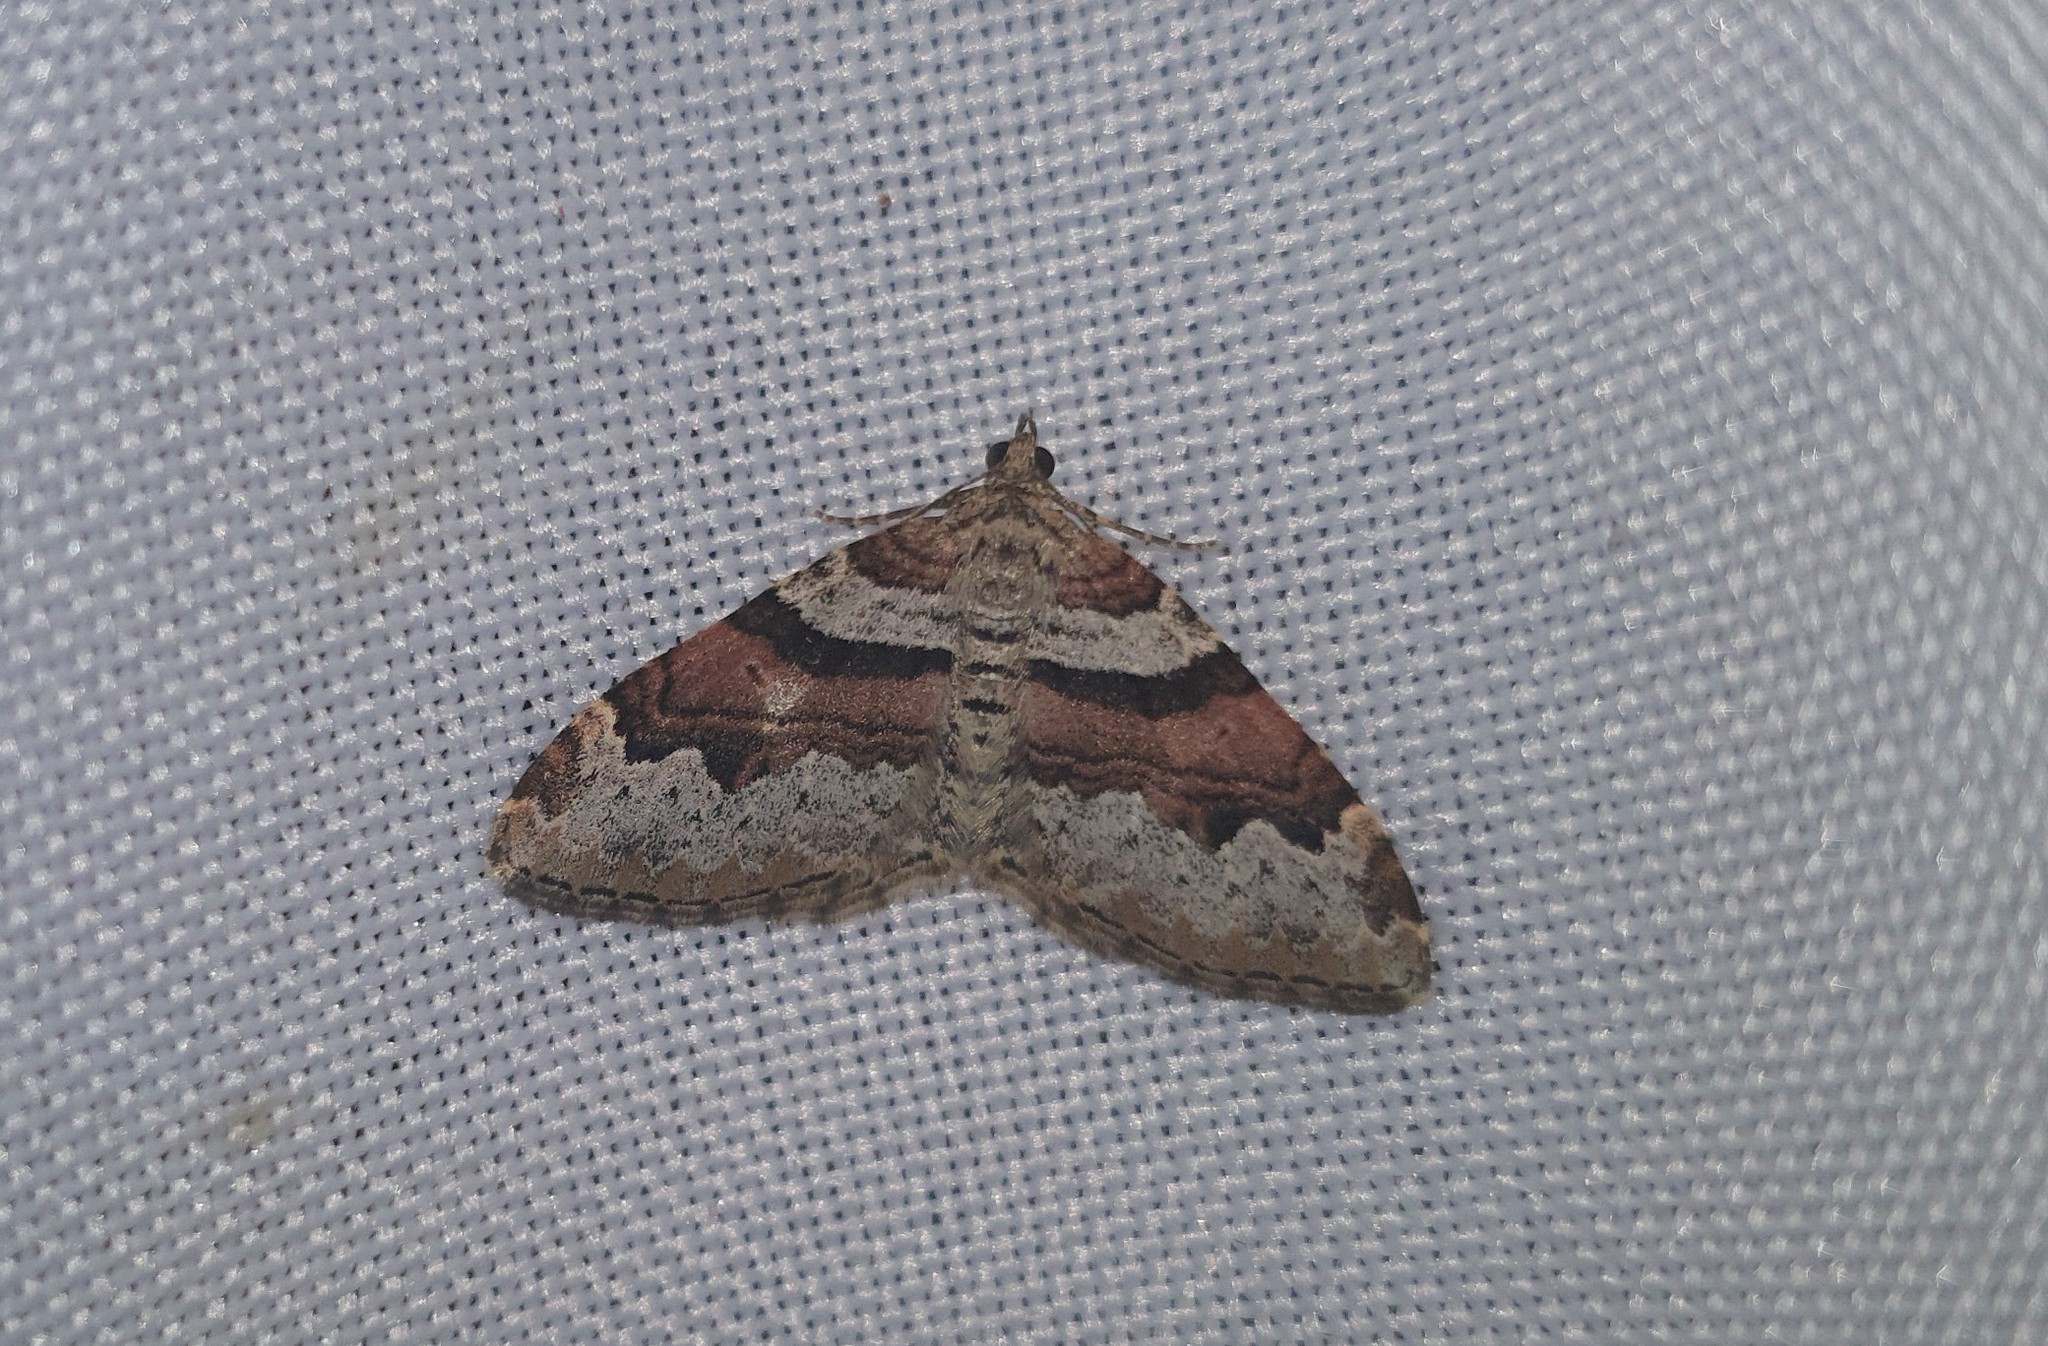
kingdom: Animalia
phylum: Arthropoda
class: Insecta
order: Lepidoptera
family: Geometridae
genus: Xanthorhoe
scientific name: Xanthorhoe designata
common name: Flame carpet
